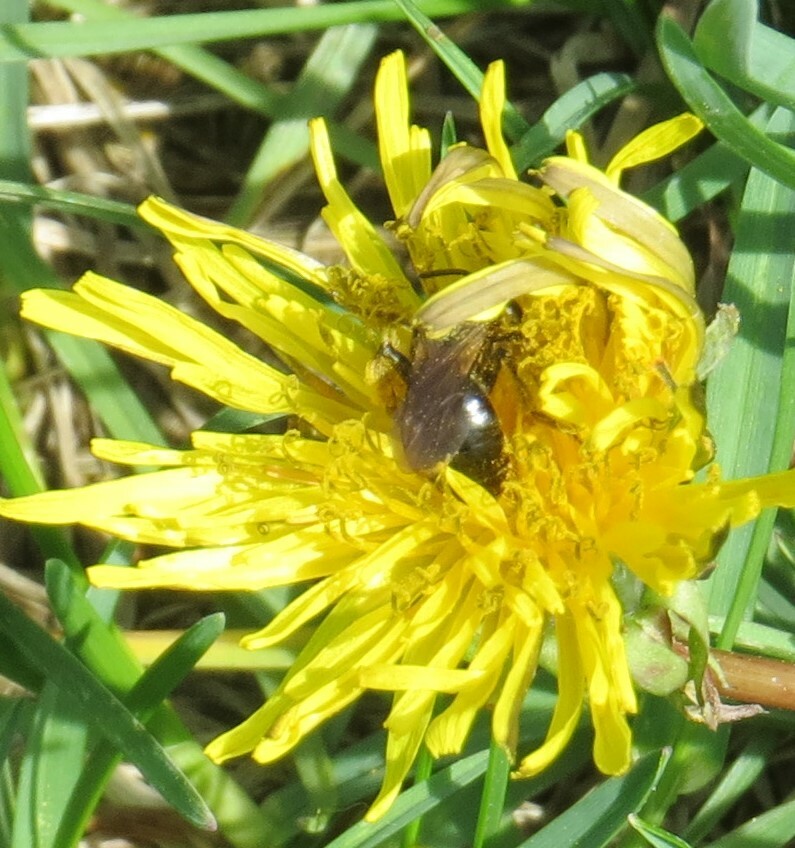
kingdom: Animalia
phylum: Arthropoda
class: Insecta
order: Hymenoptera
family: Andrenidae
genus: Andrena
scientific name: Andrena
